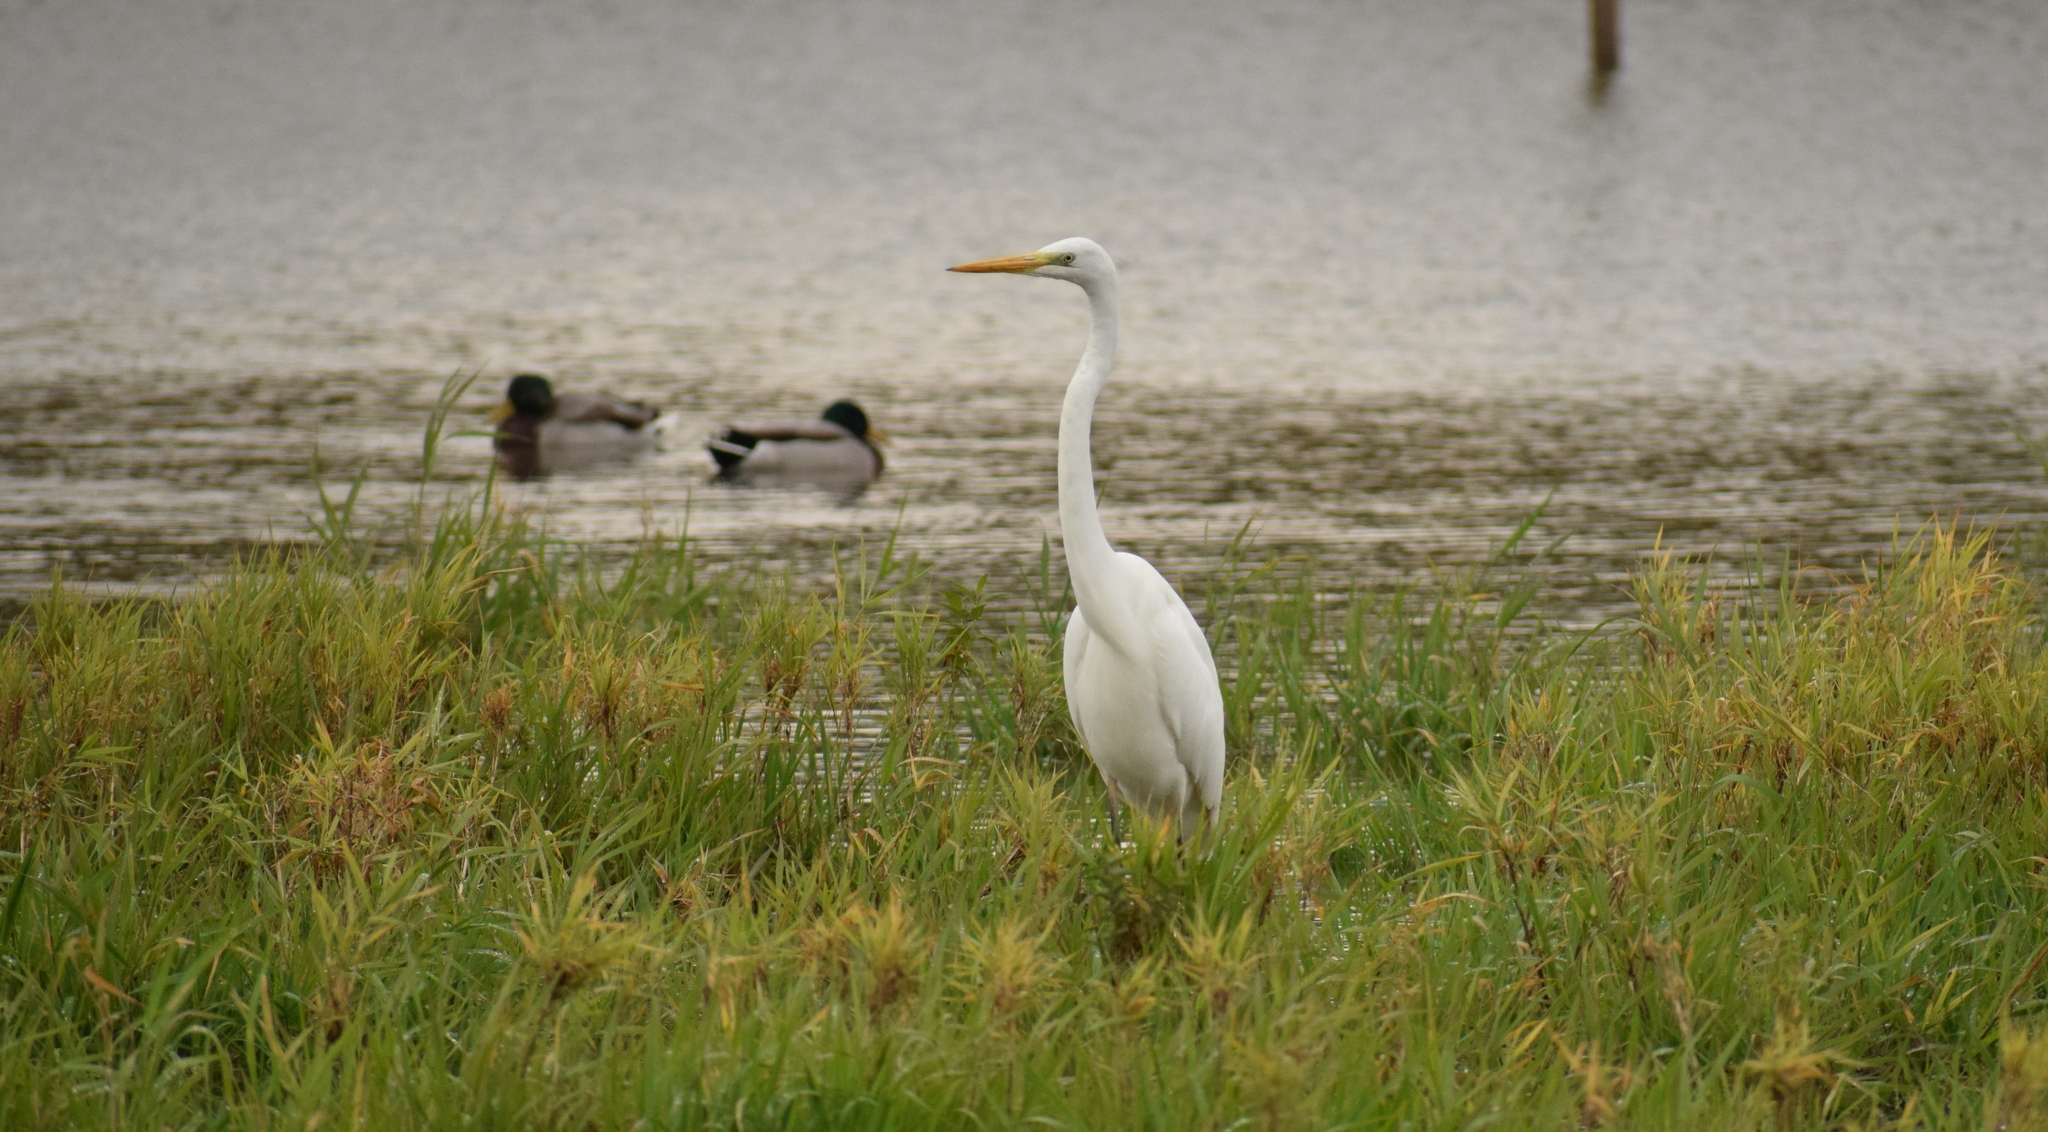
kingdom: Animalia
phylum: Chordata
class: Aves
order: Pelecaniformes
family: Ardeidae
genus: Ardea
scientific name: Ardea alba
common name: Great egret
